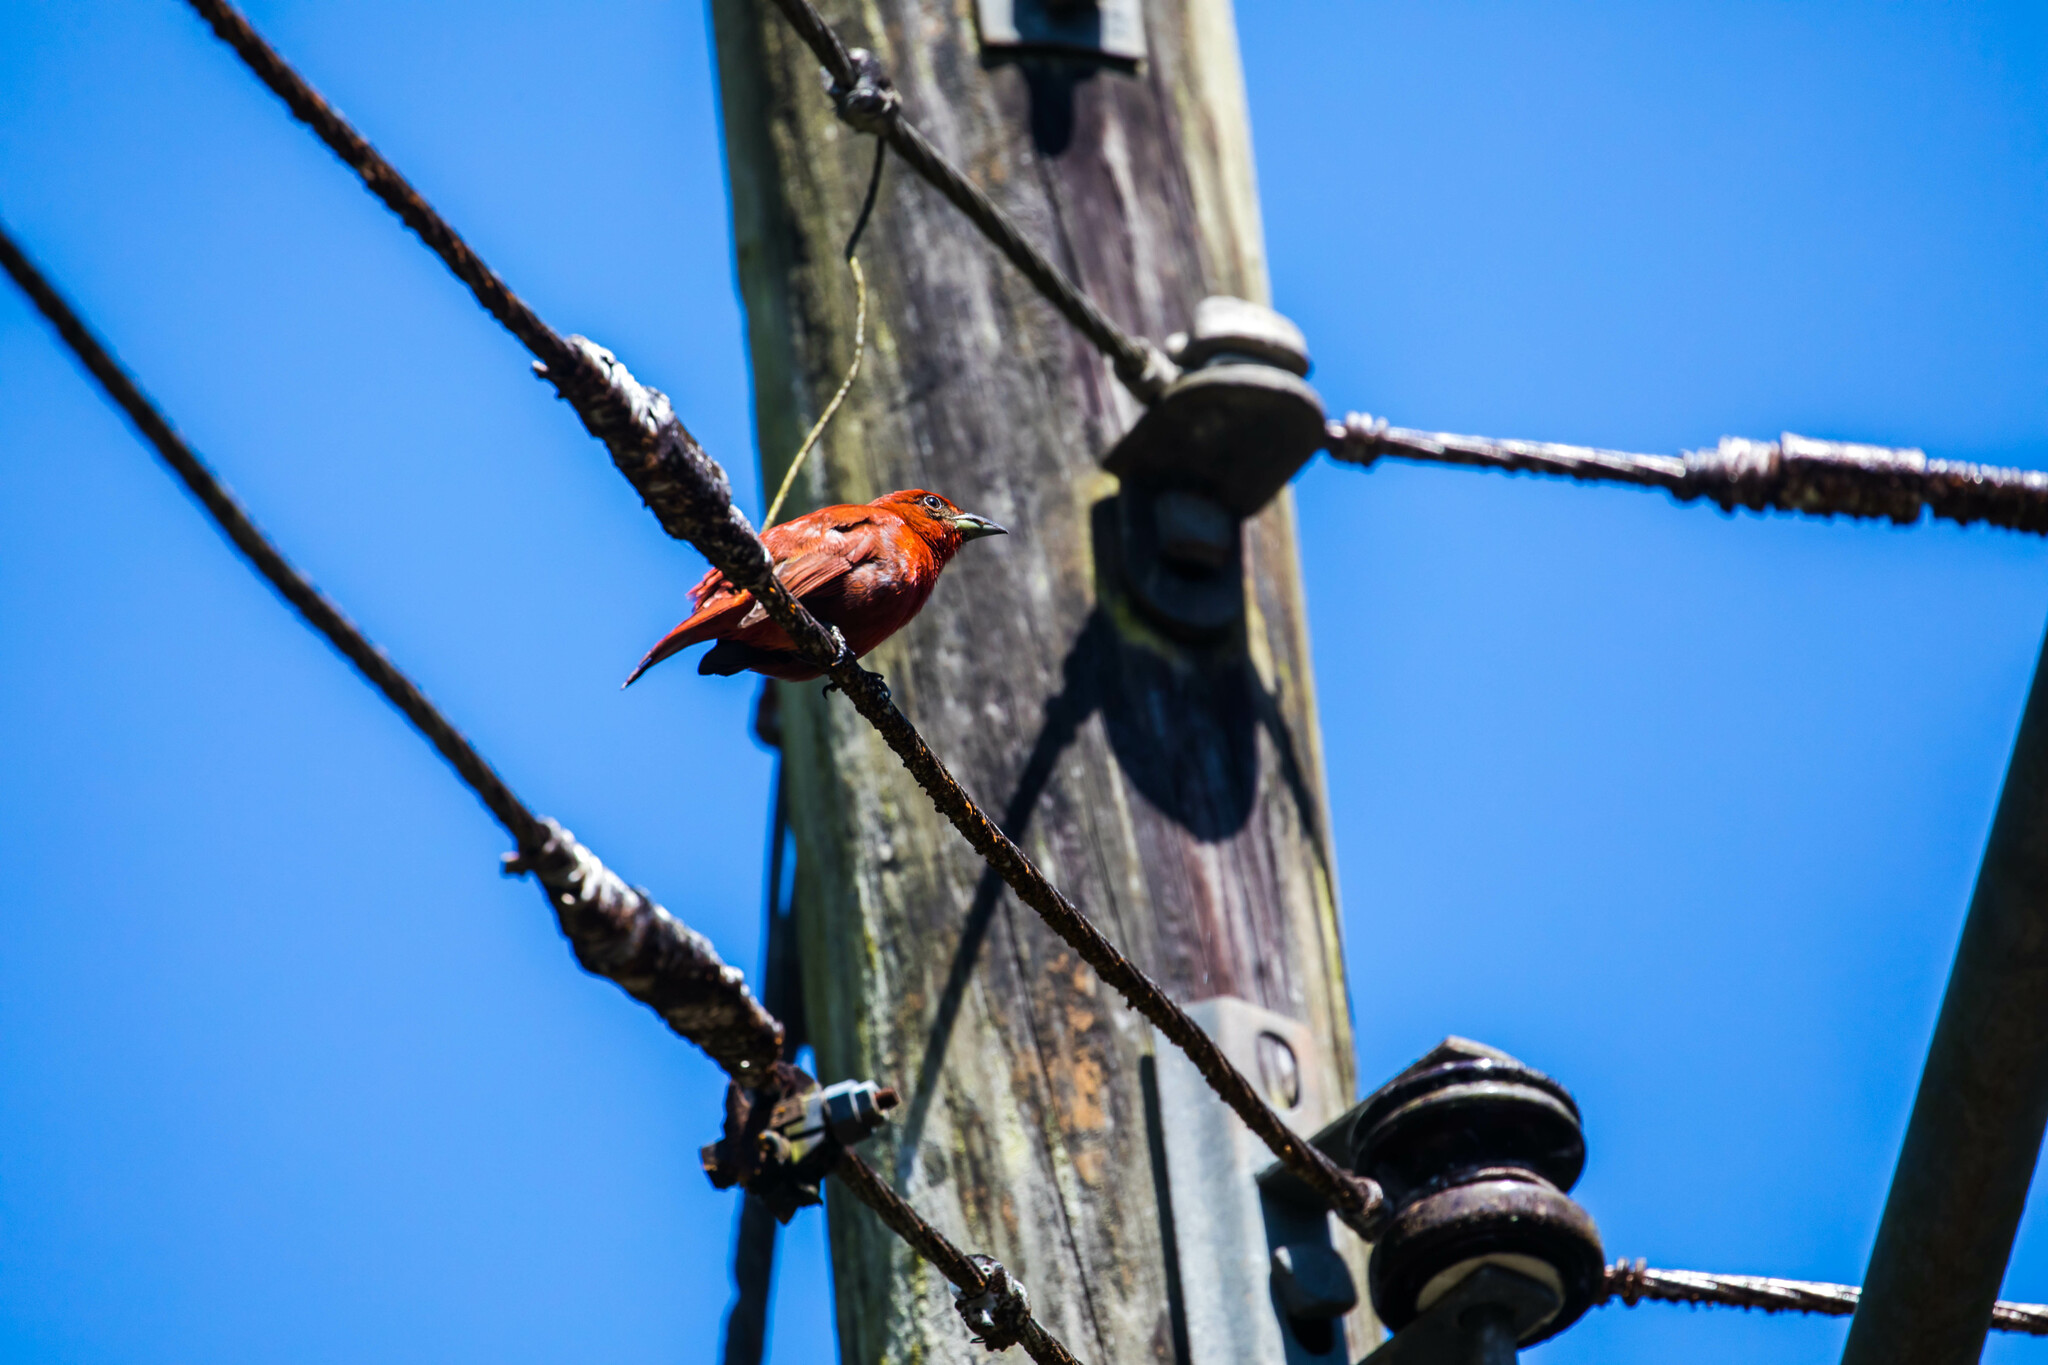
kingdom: Animalia
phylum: Chordata
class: Aves
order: Passeriformes
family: Cardinalidae
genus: Piranga
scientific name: Piranga flava
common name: Red tanager
